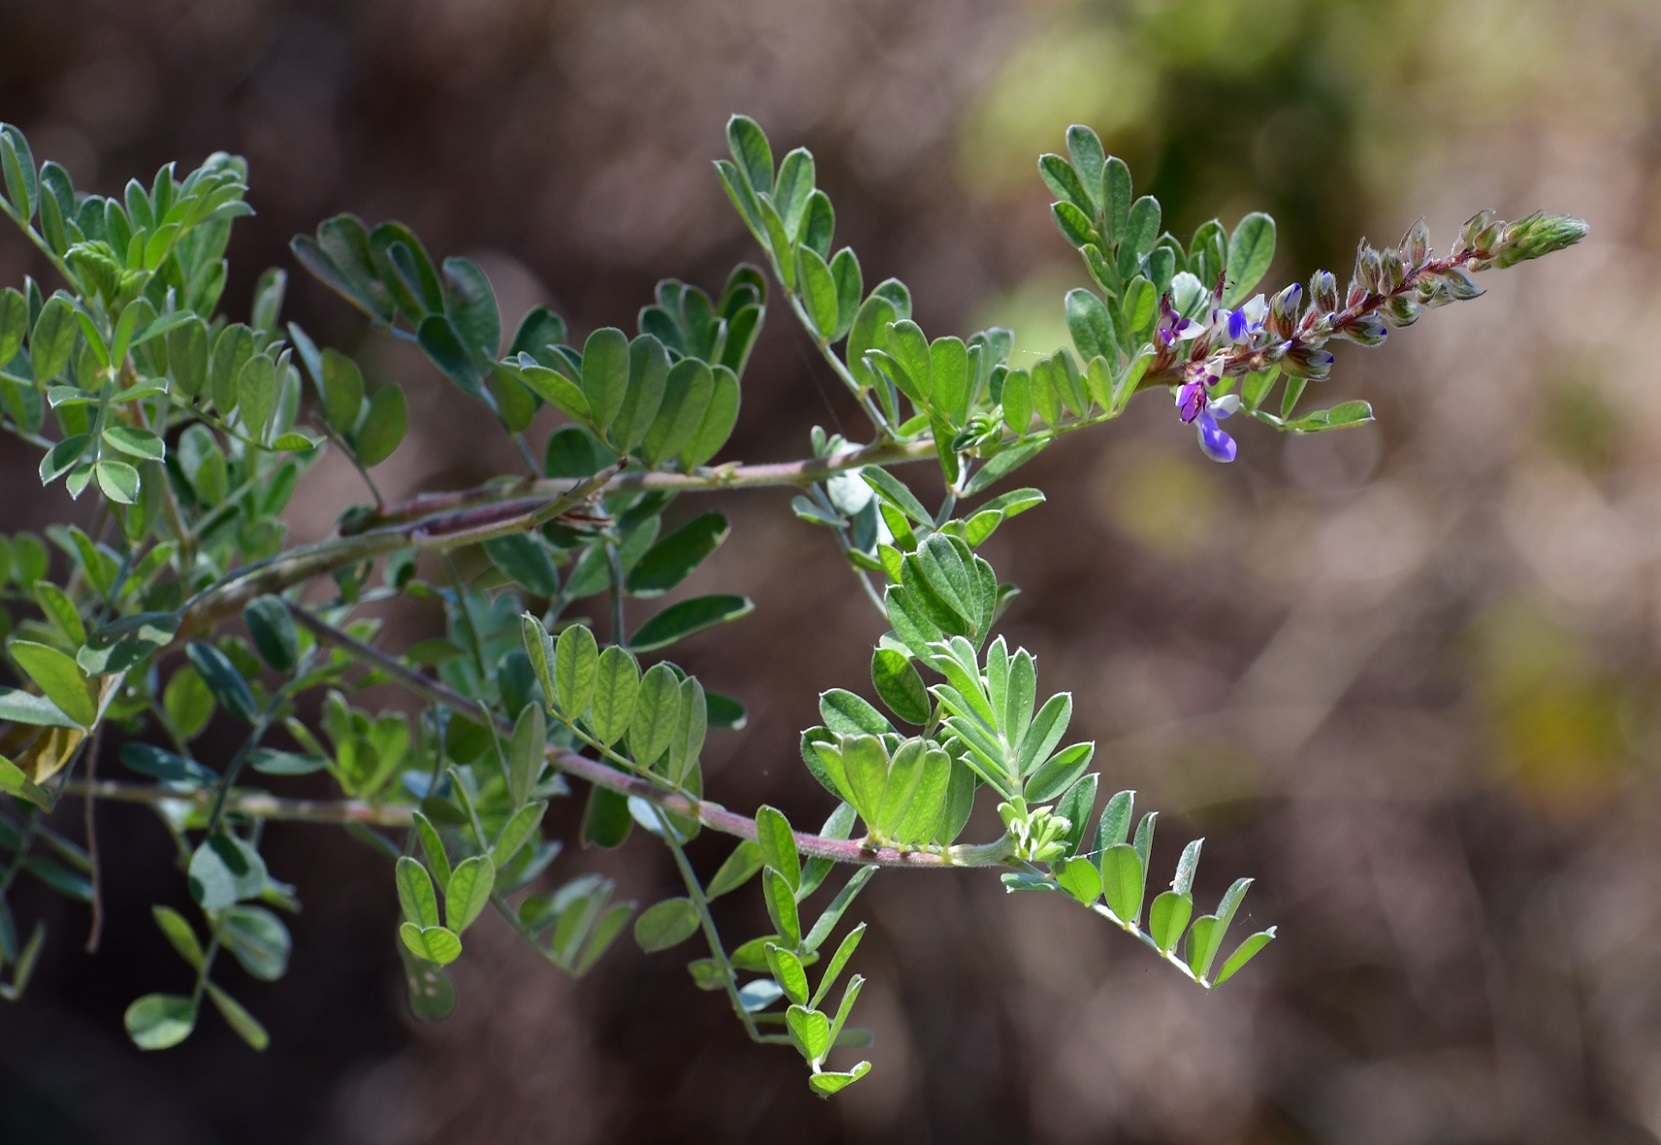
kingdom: Plantae
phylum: Tracheophyta
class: Magnoliopsida
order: Fabales
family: Fabaceae
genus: Marina
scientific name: Marina spiciformis
